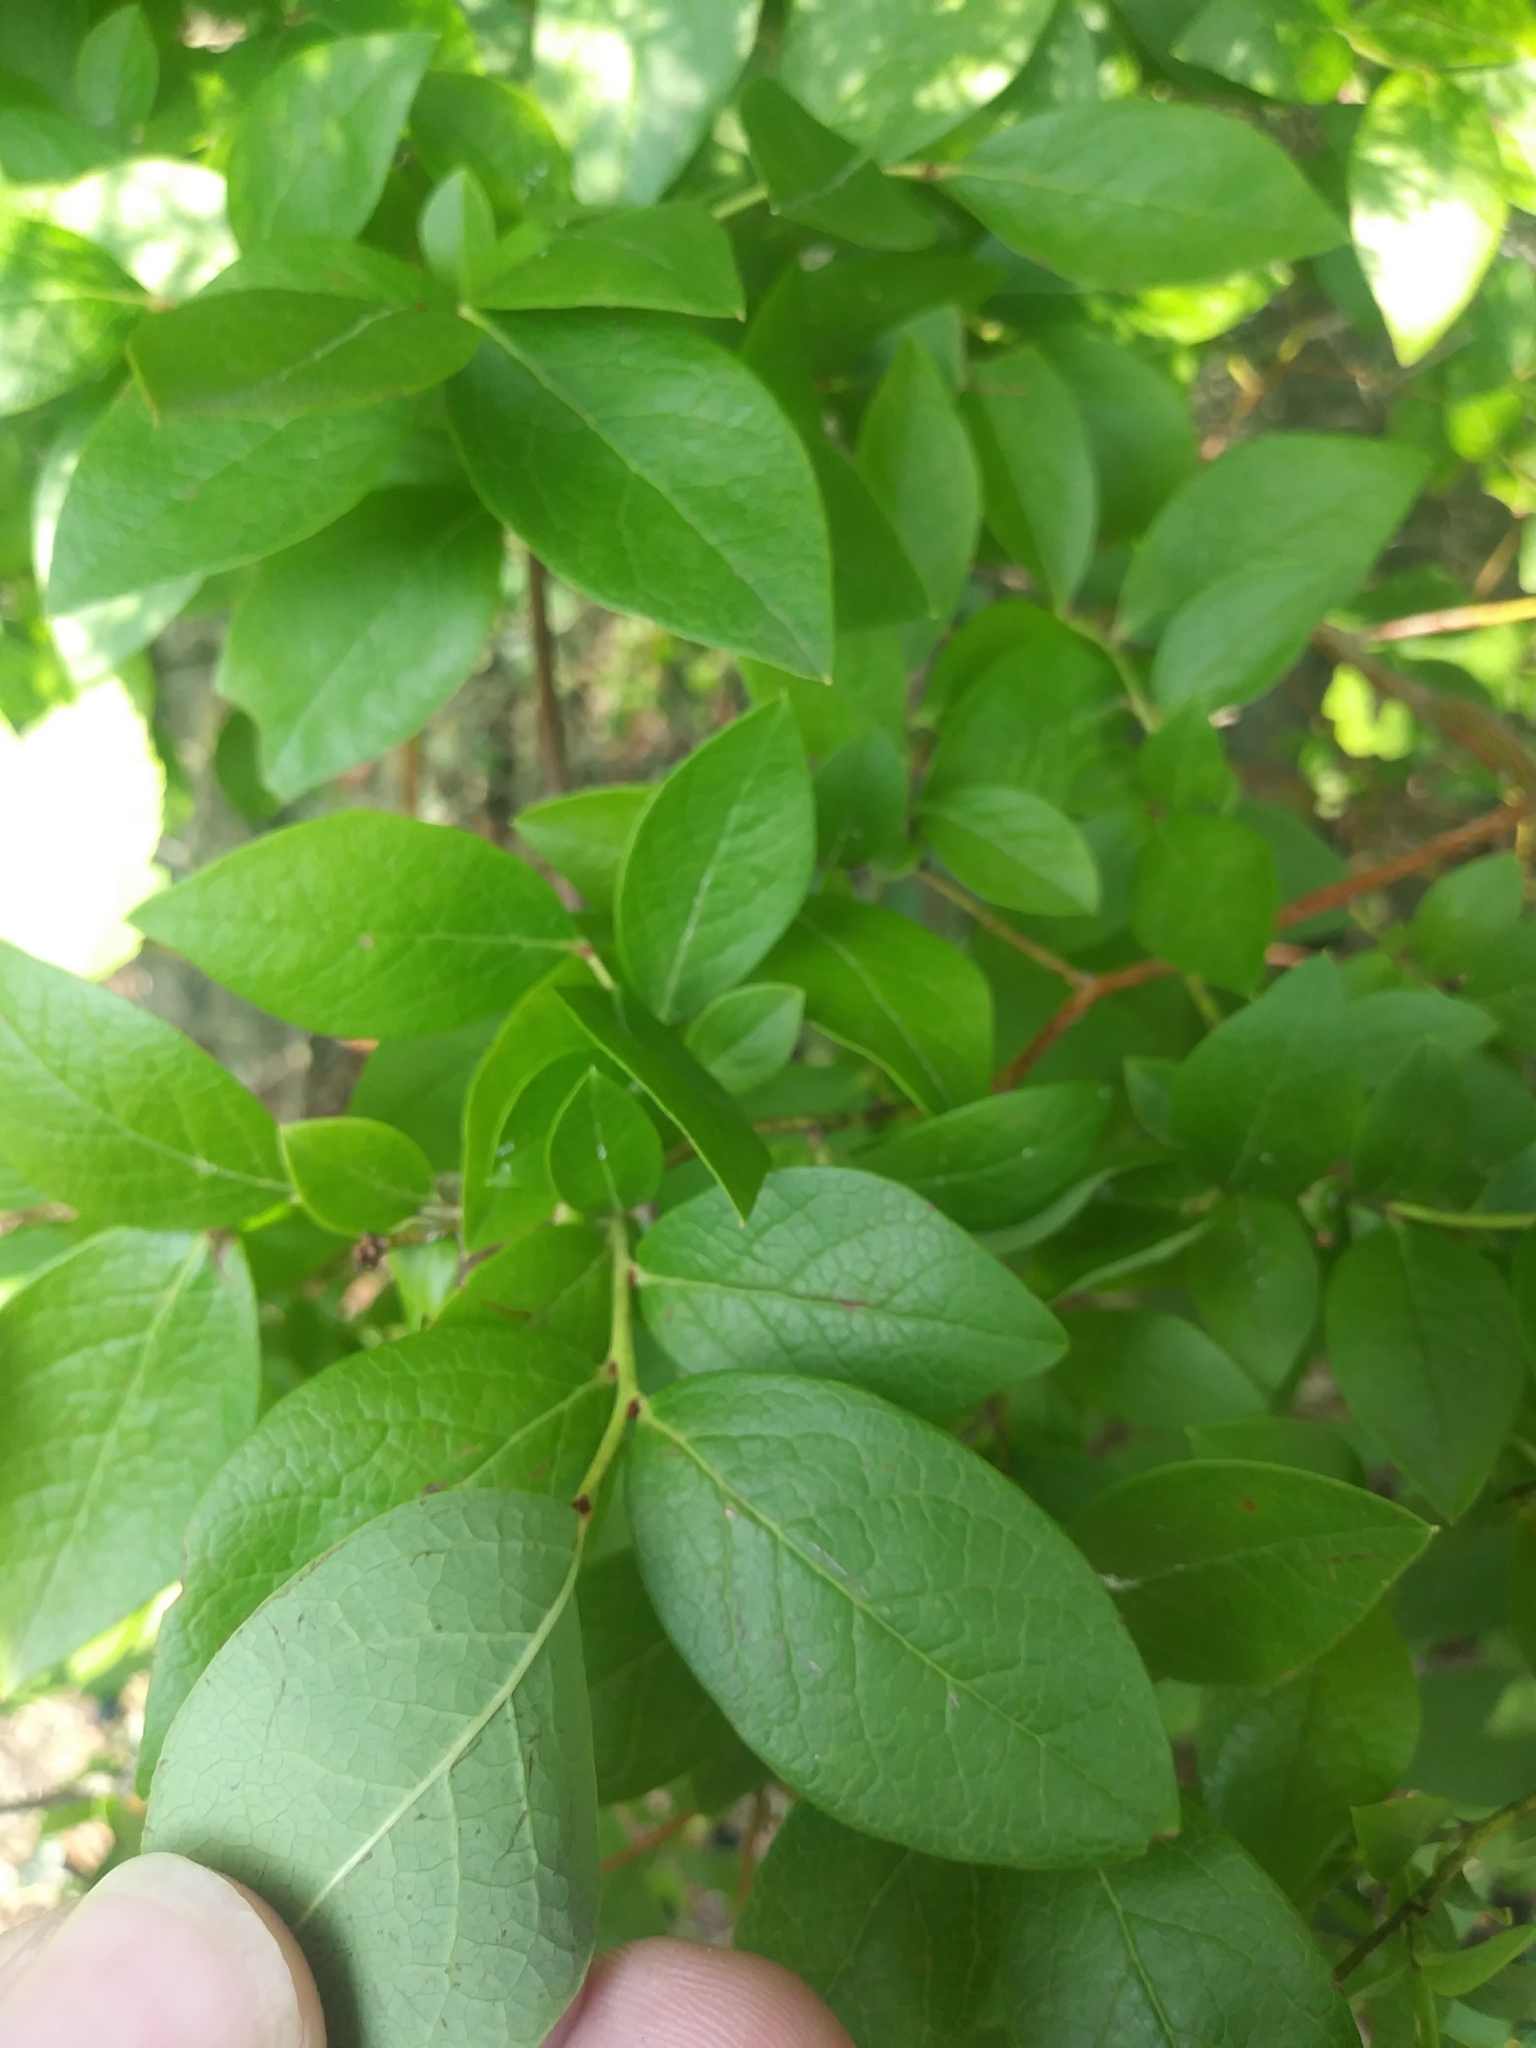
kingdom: Plantae
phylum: Tracheophyta
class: Magnoliopsida
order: Ericales
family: Ericaceae
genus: Vaccinium
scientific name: Vaccinium caesariense
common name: New jersey highbush blueberry
